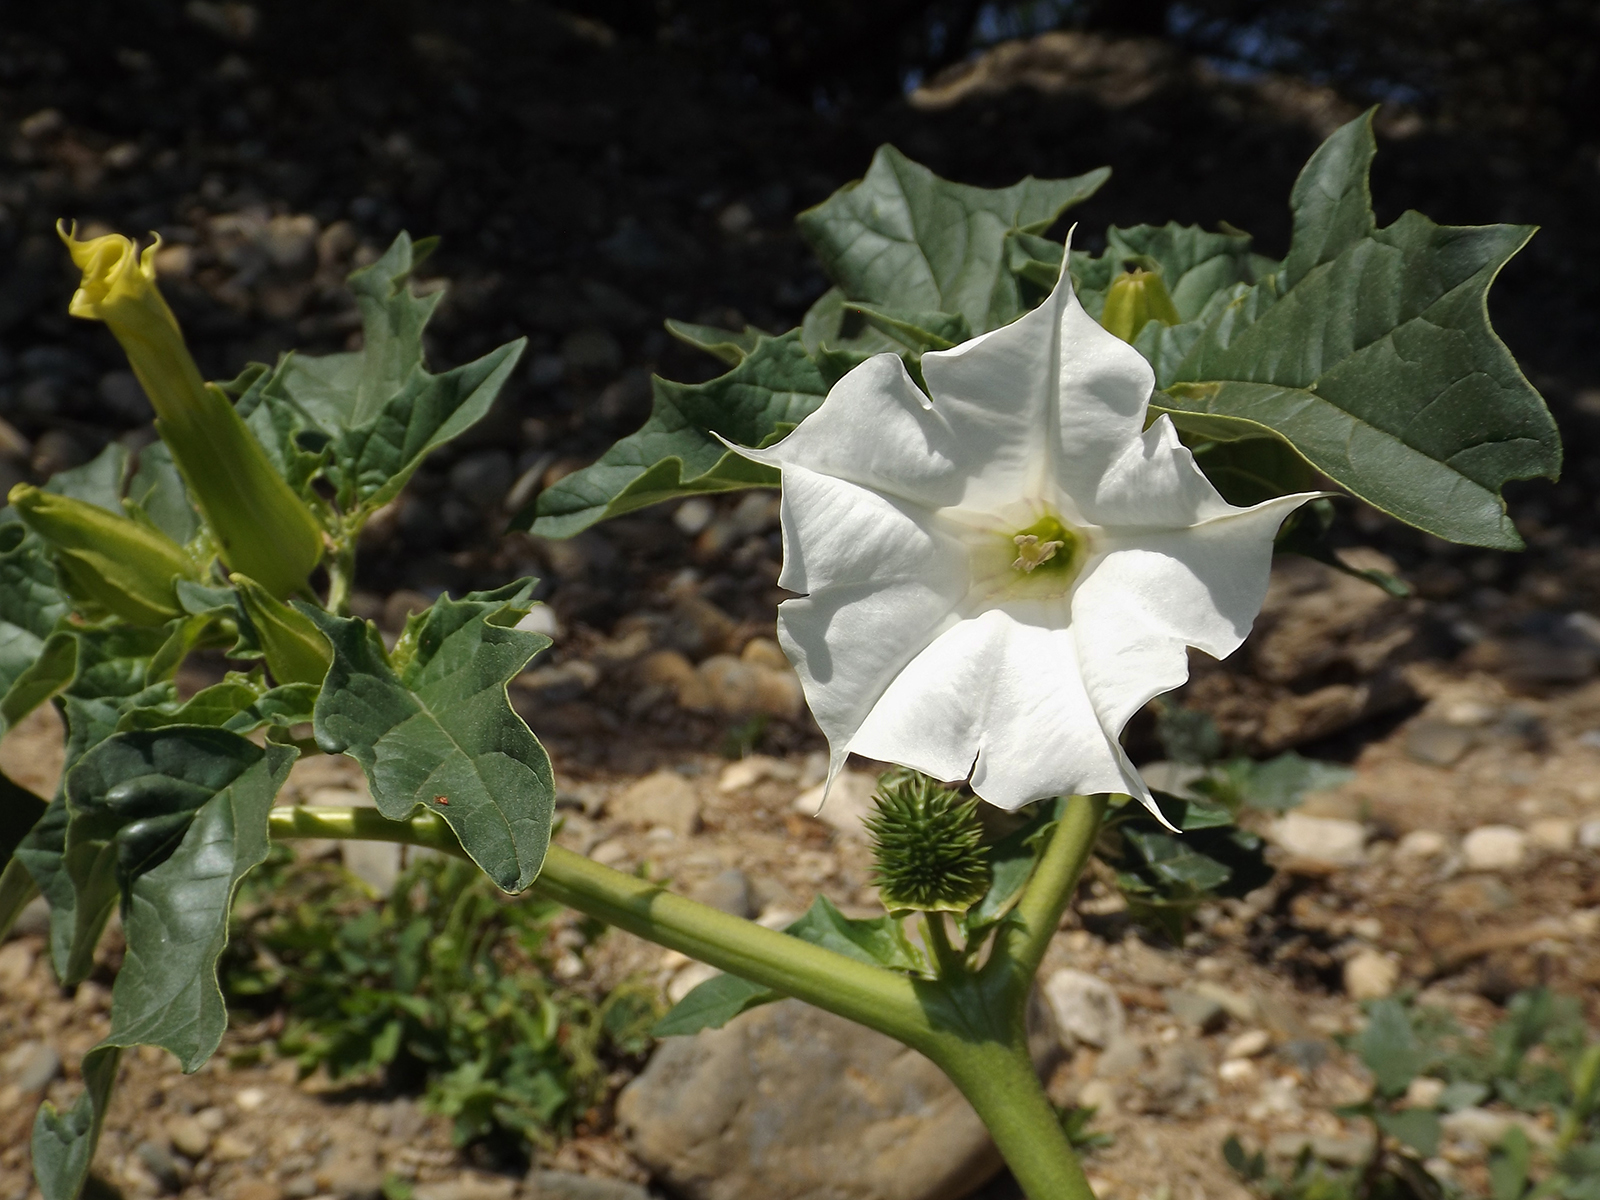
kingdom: Plantae
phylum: Tracheophyta
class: Magnoliopsida
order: Solanales
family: Solanaceae
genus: Datura
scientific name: Datura stramonium
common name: Thorn-apple
